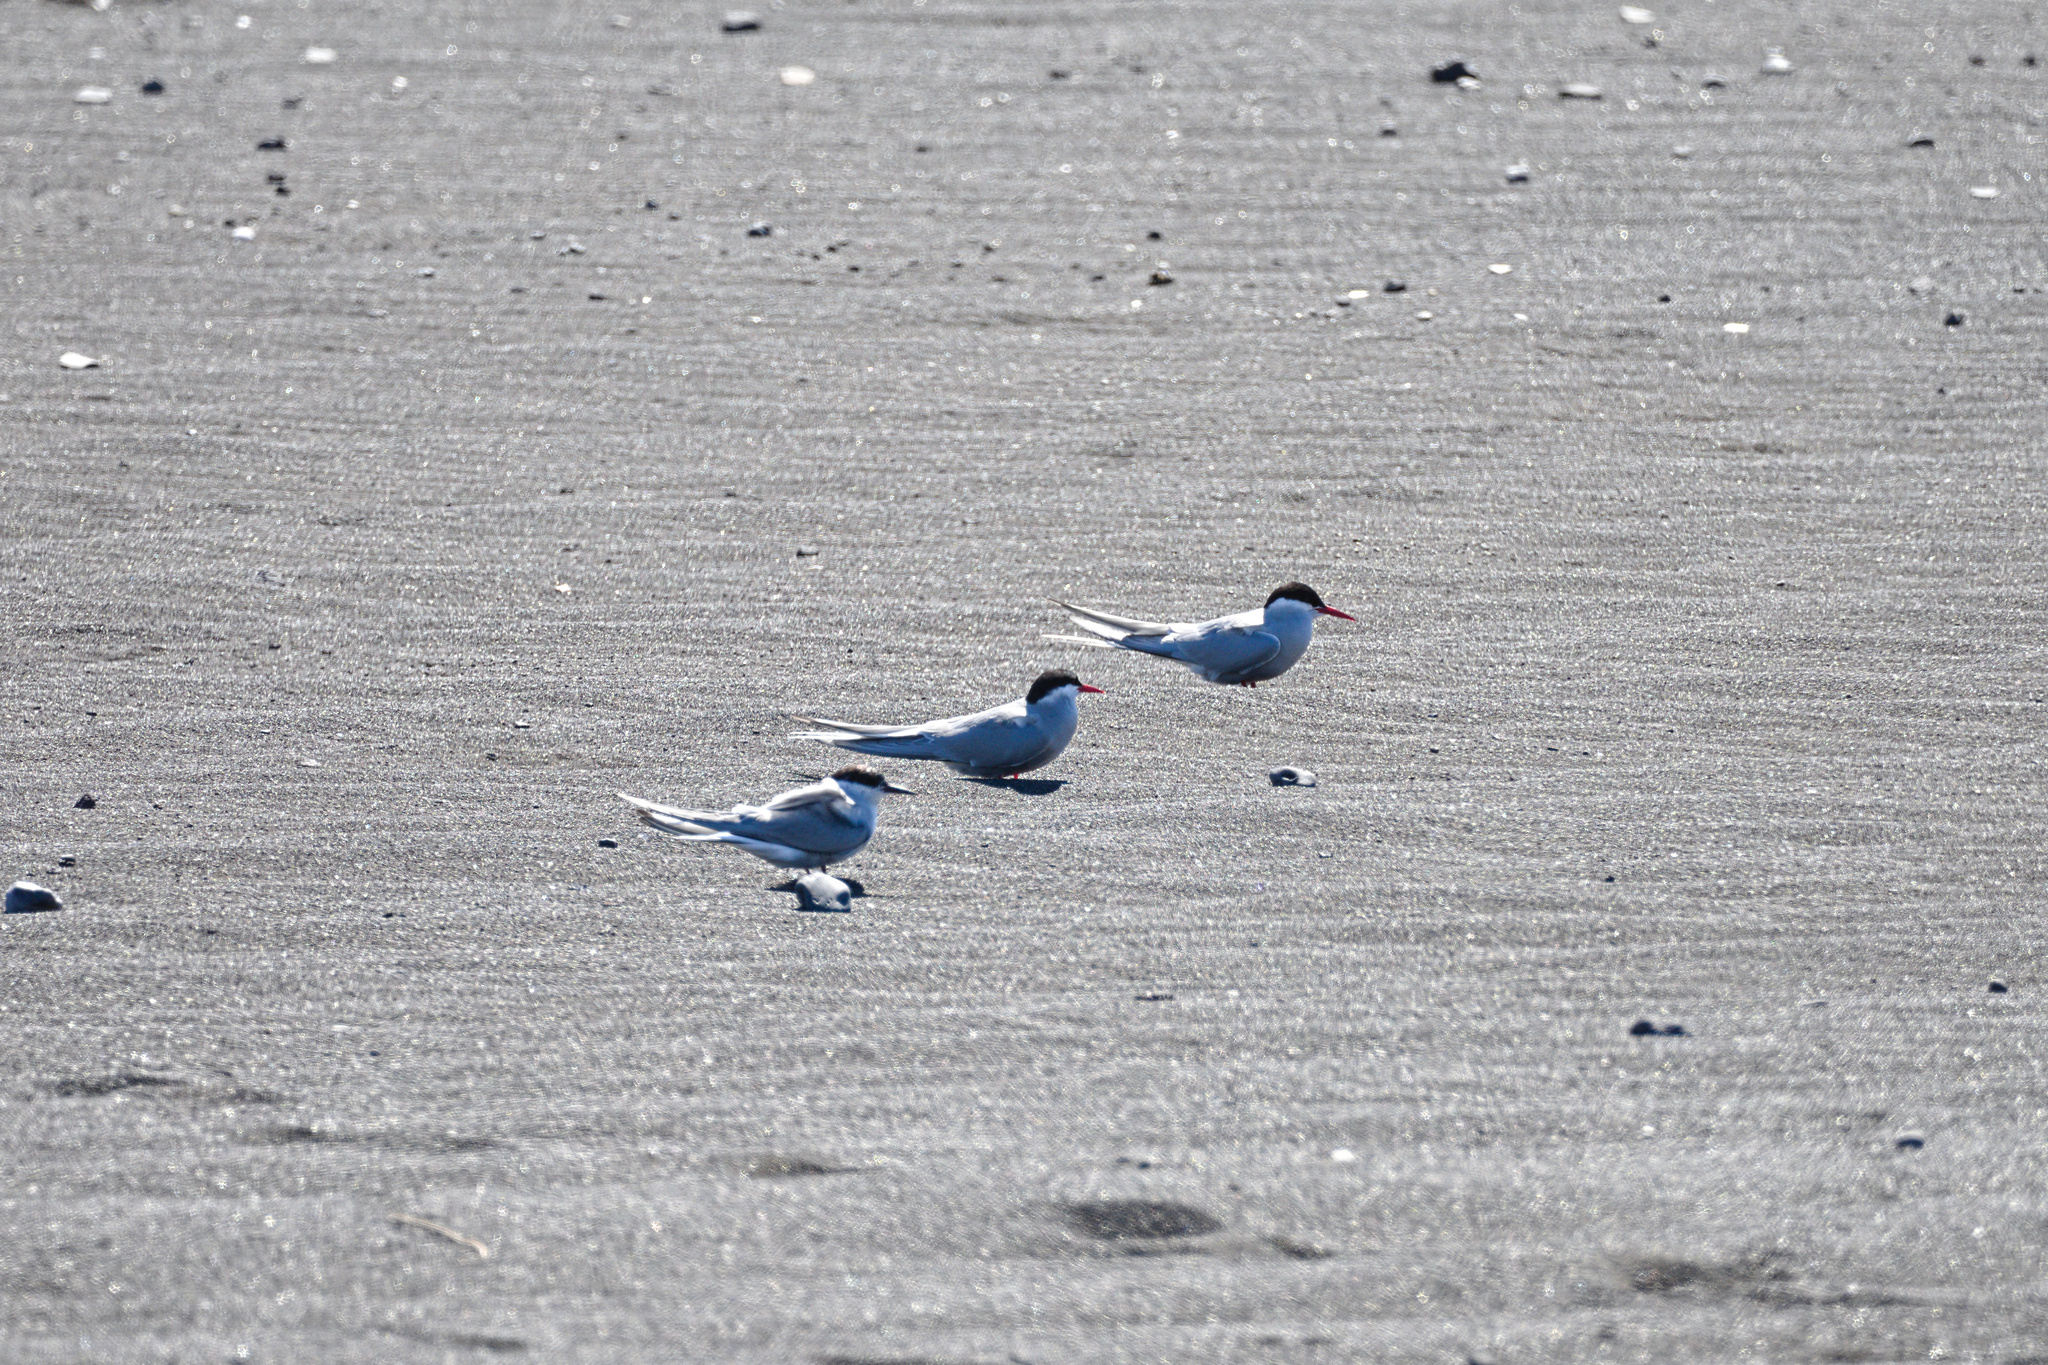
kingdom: Animalia
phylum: Chordata
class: Aves
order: Charadriiformes
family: Laridae
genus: Sterna
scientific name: Sterna paradisaea
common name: Arctic tern
